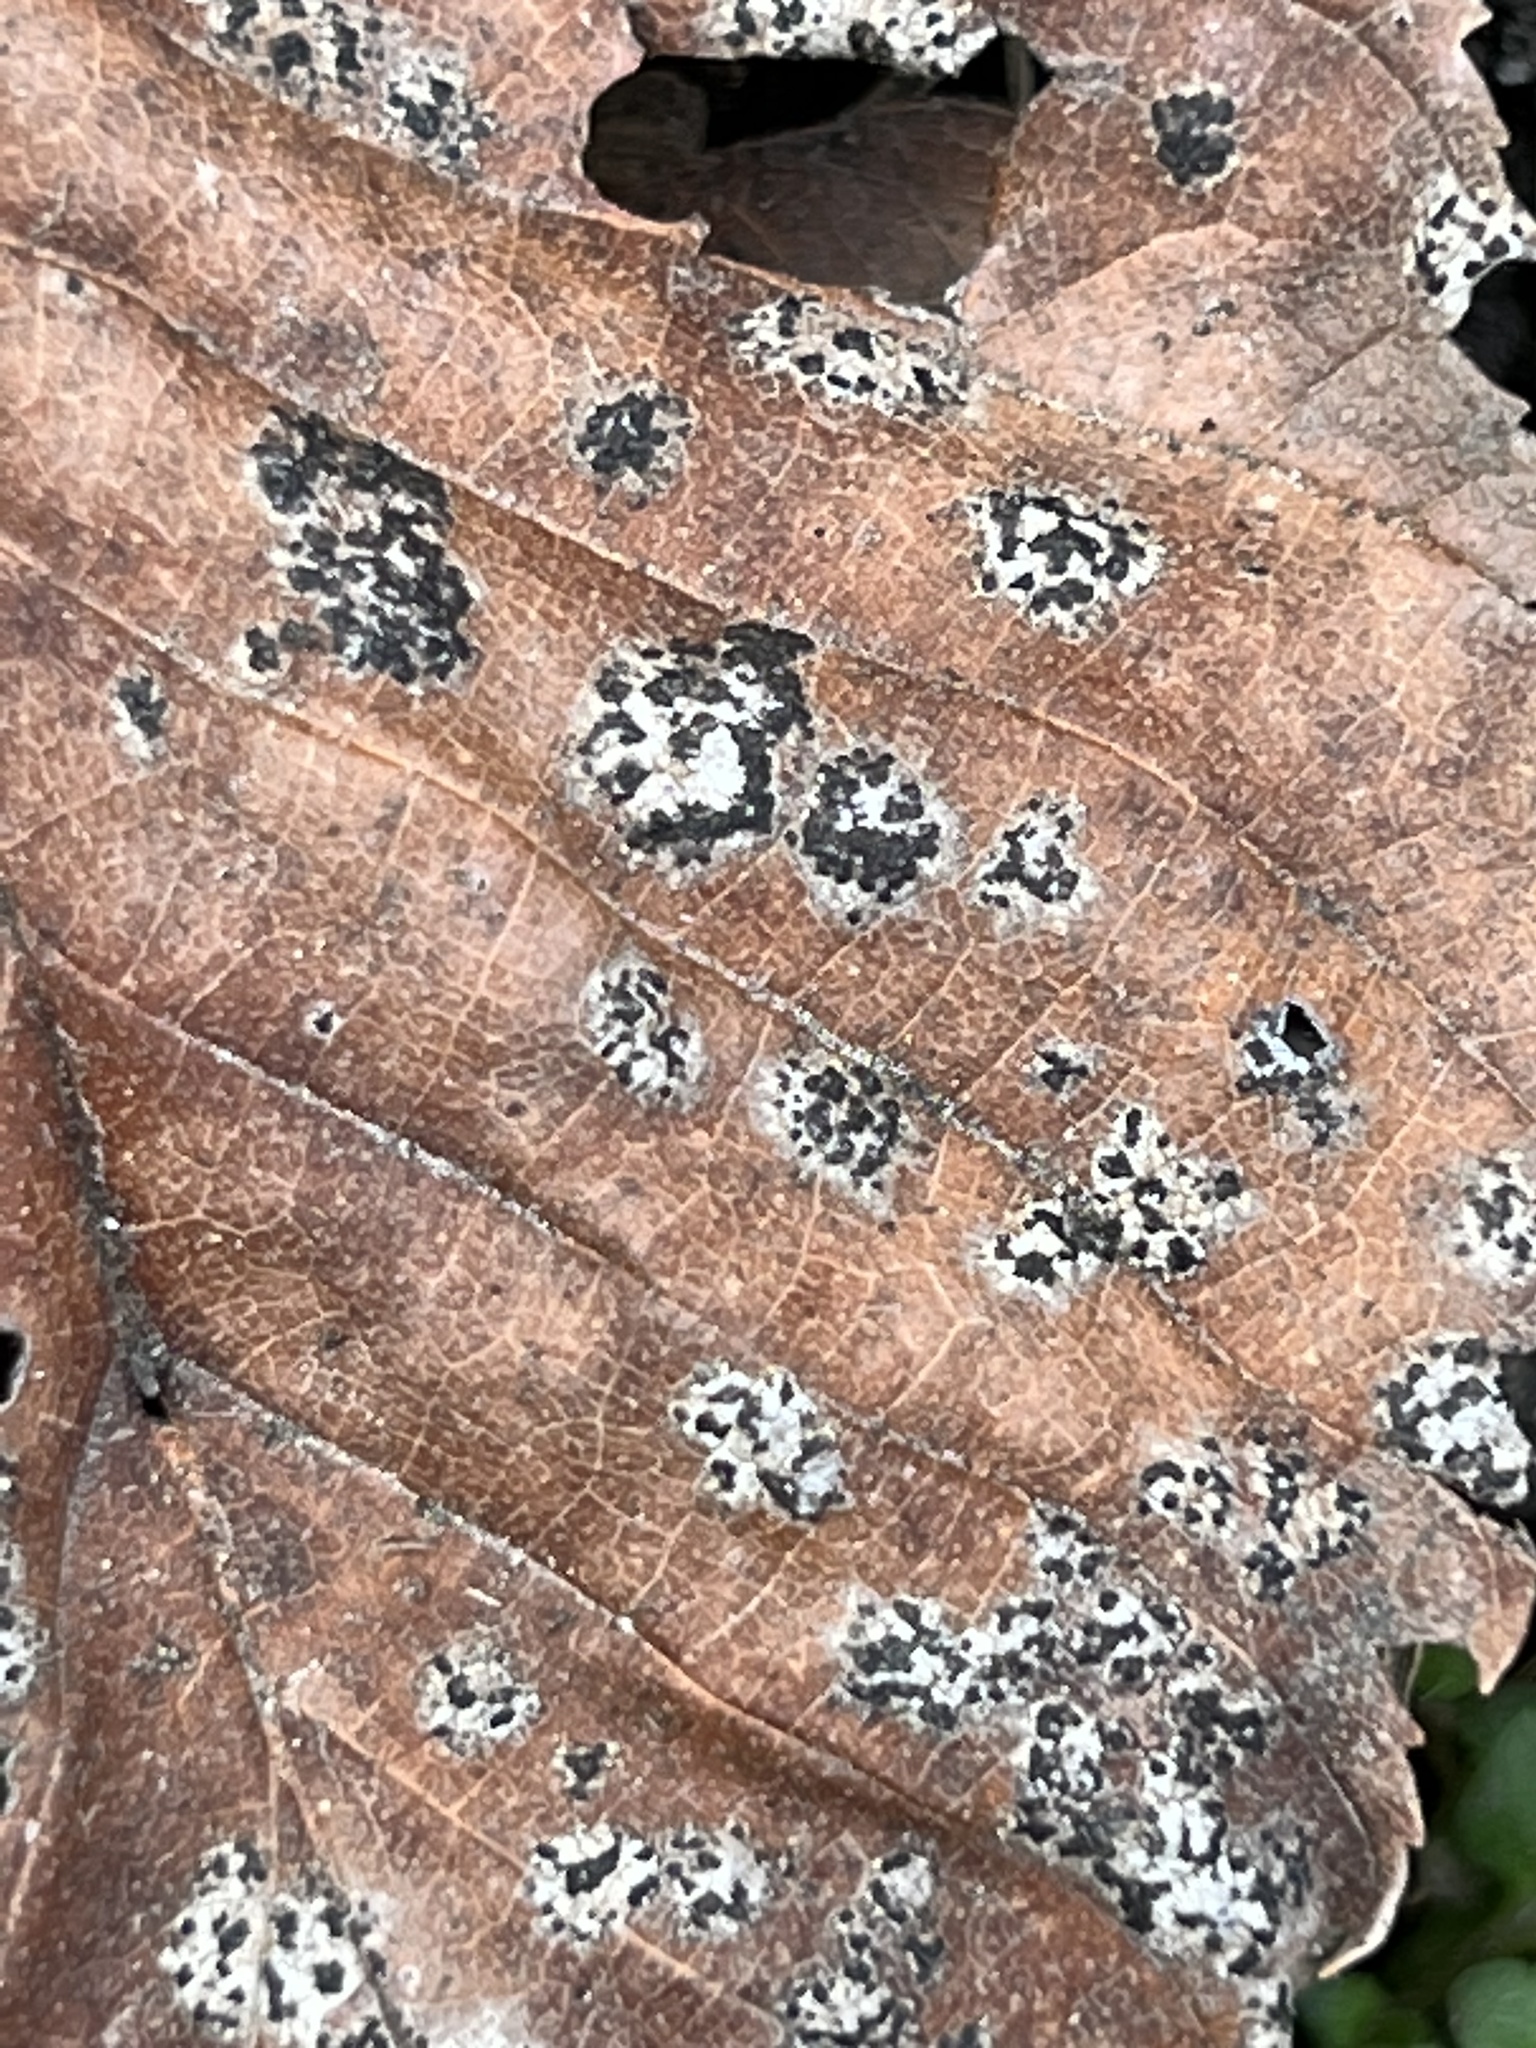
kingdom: Fungi
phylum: Ascomycota
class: Dothideomycetes
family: Polystomellaceae
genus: Dothidella
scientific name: Dothidella ulmi
